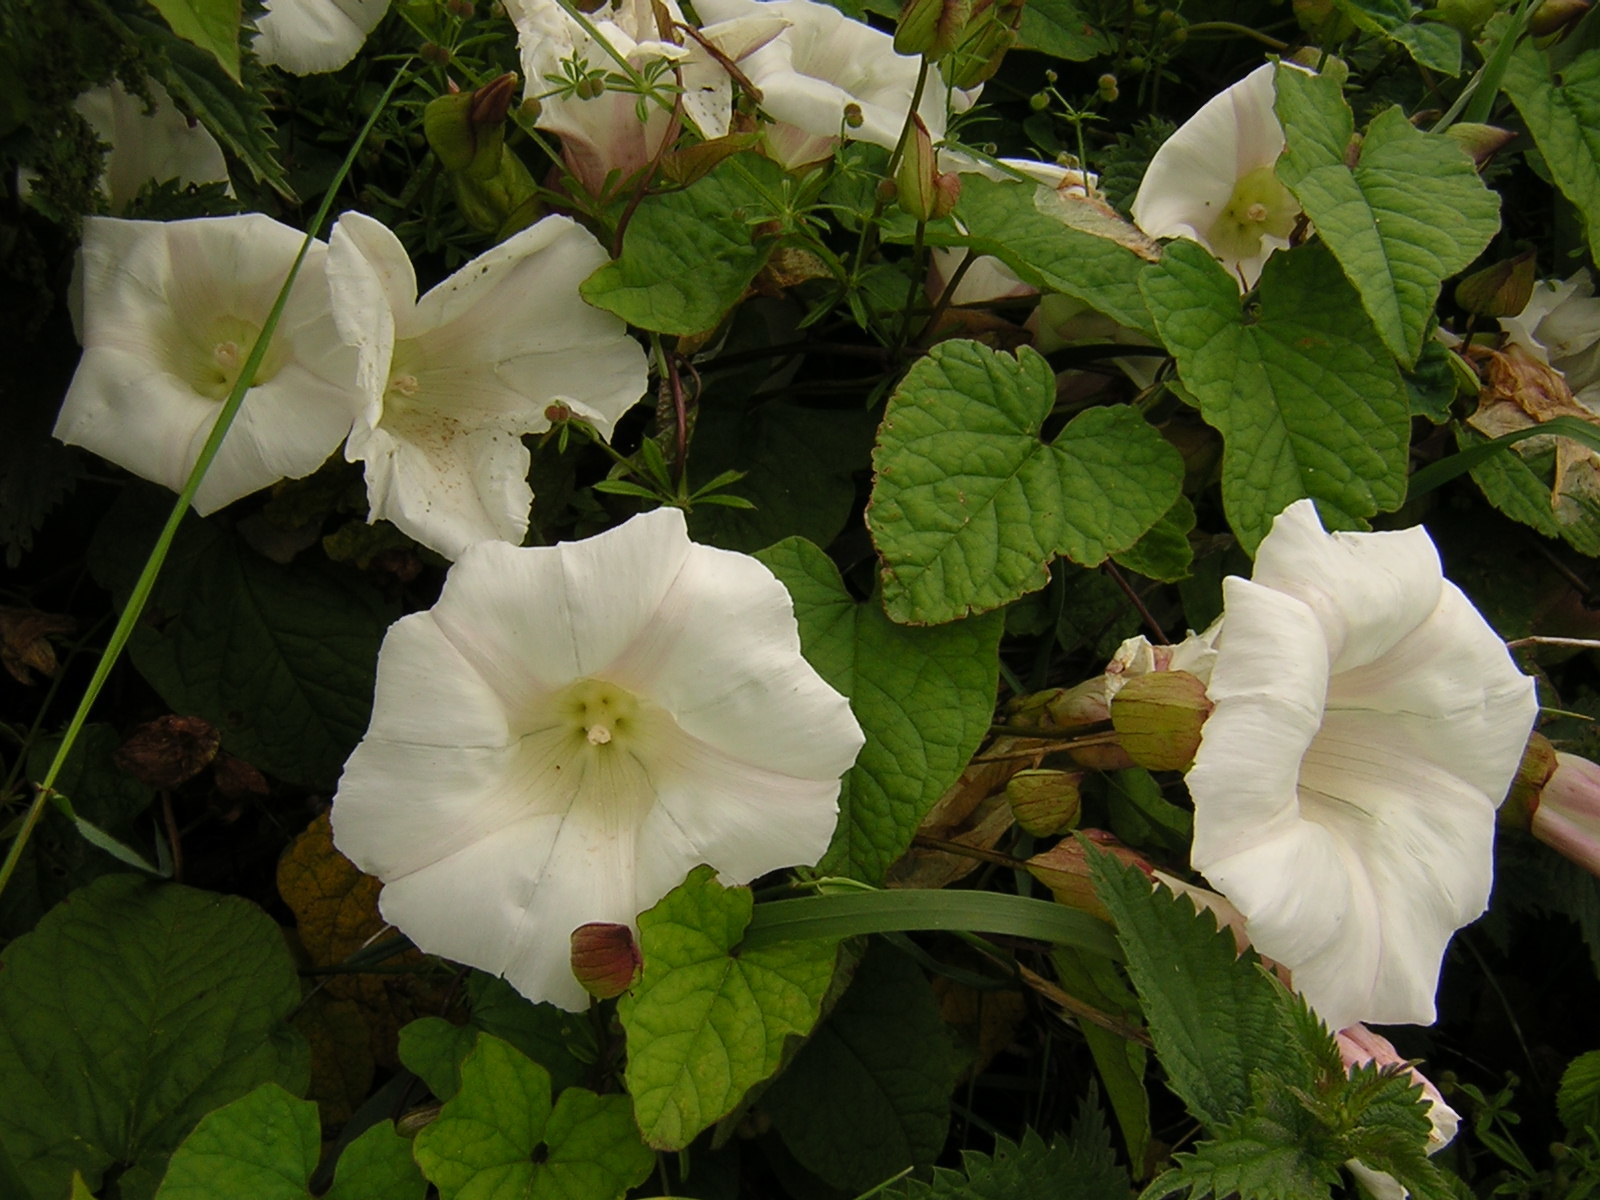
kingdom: Plantae
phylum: Tracheophyta
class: Magnoliopsida
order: Solanales
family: Convolvulaceae
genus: Calystegia
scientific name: Calystegia silvatica
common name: Large bindweed
